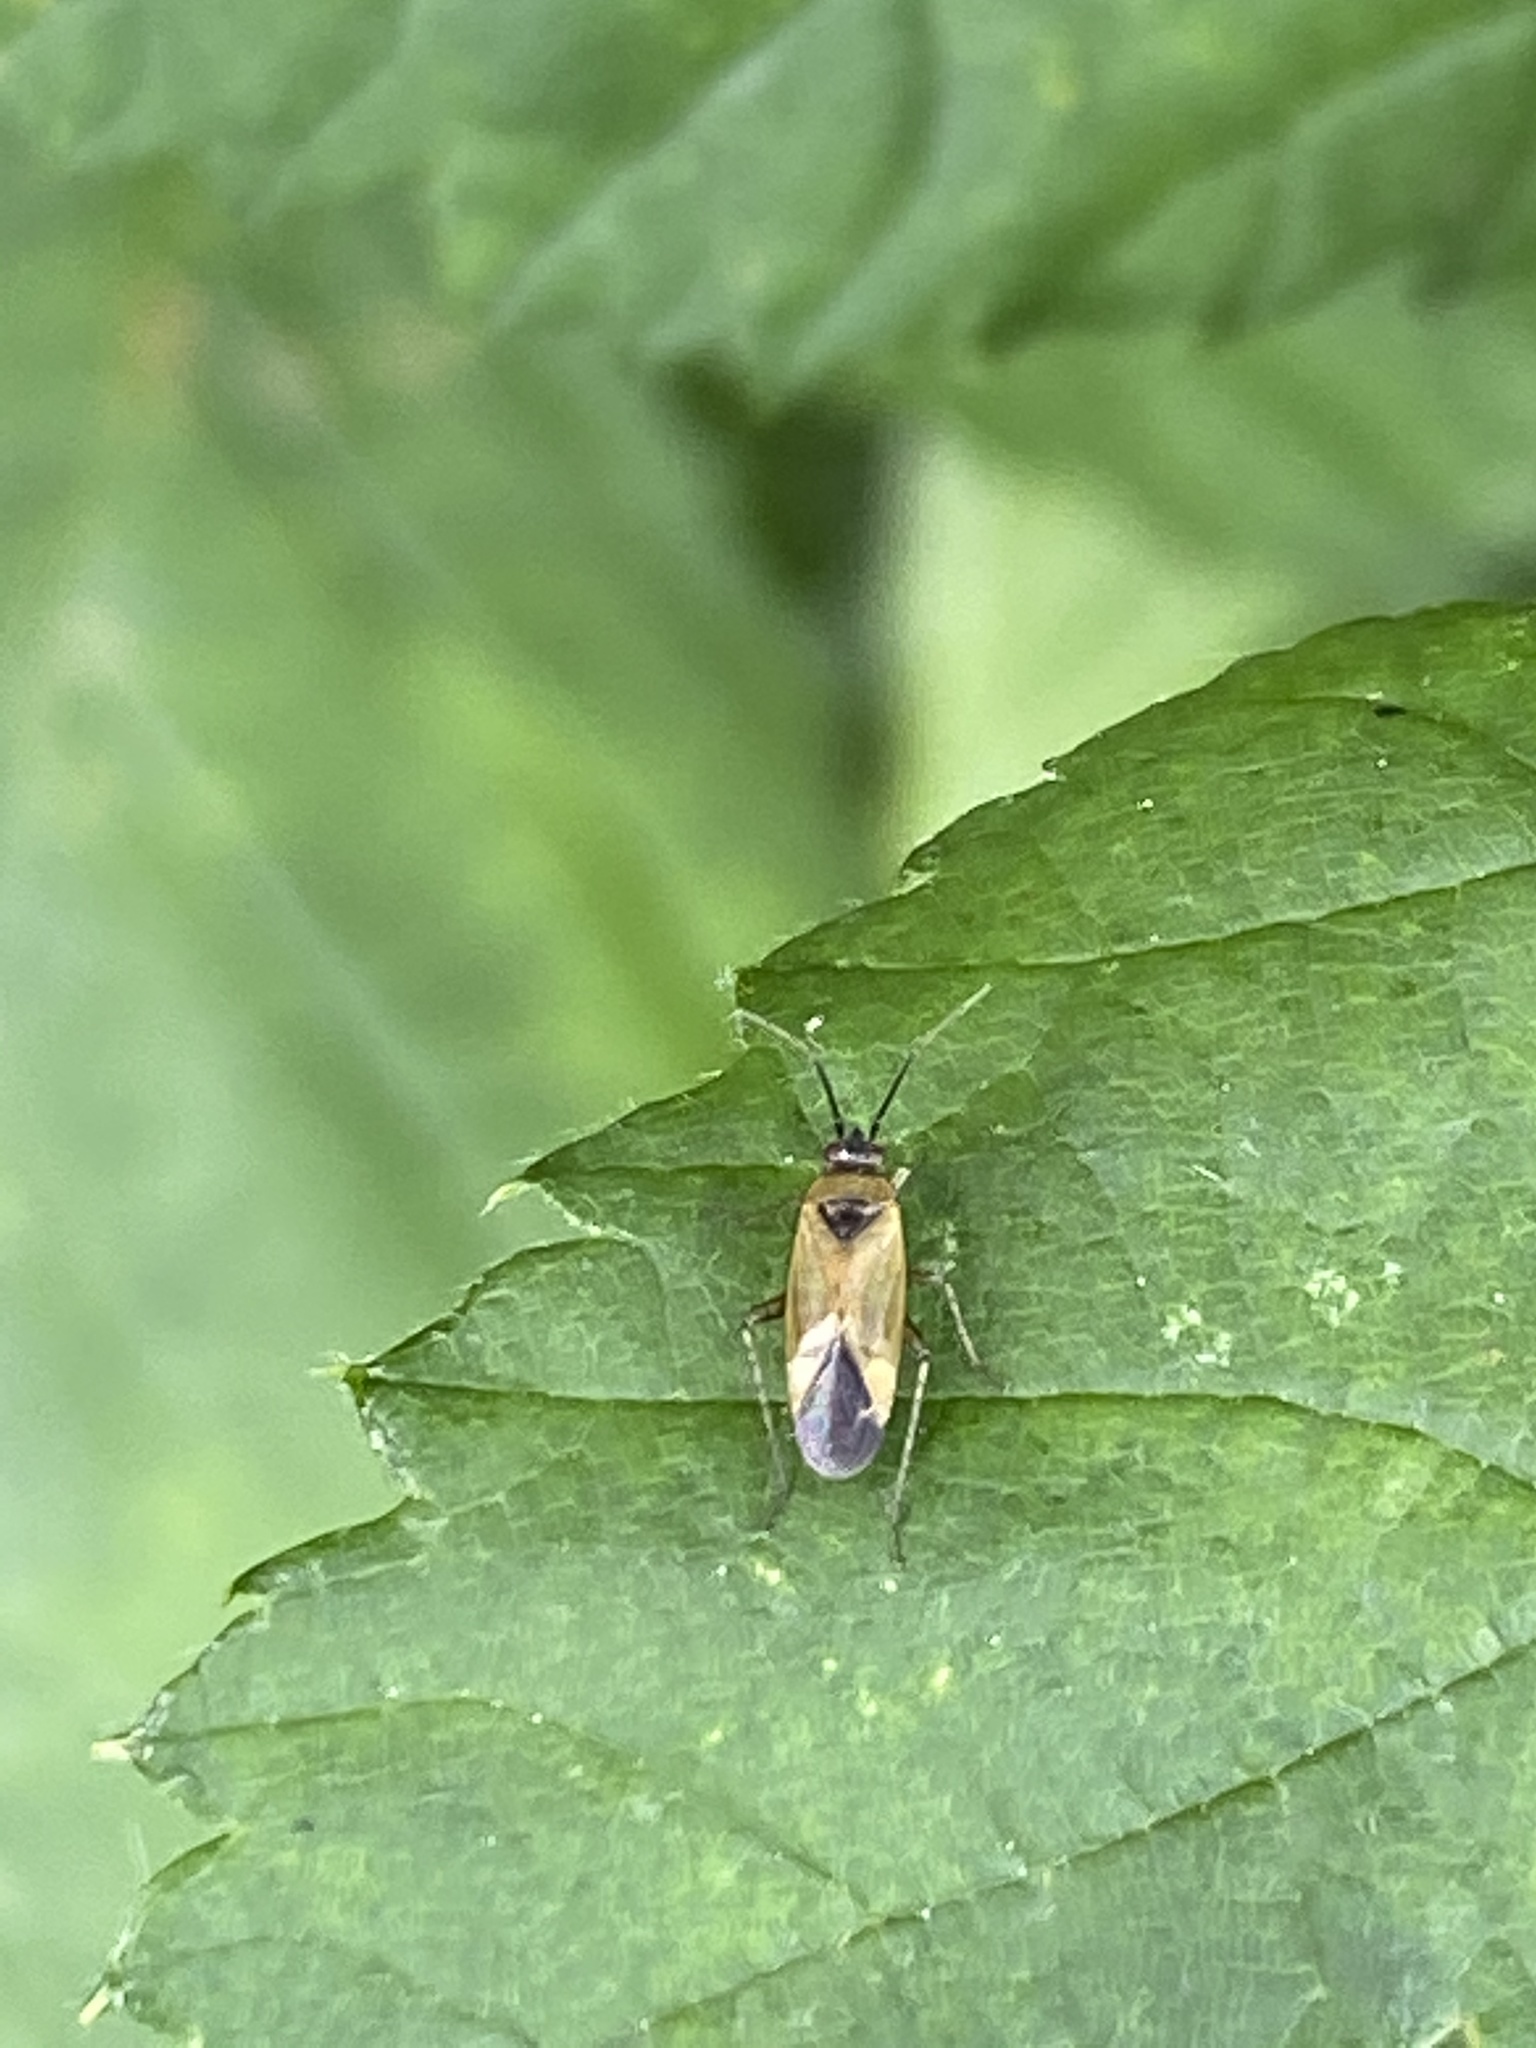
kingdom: Animalia
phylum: Arthropoda
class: Insecta
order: Hemiptera
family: Miridae
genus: Plagiognathus
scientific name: Plagiognathus arbustorum
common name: Plant bug
